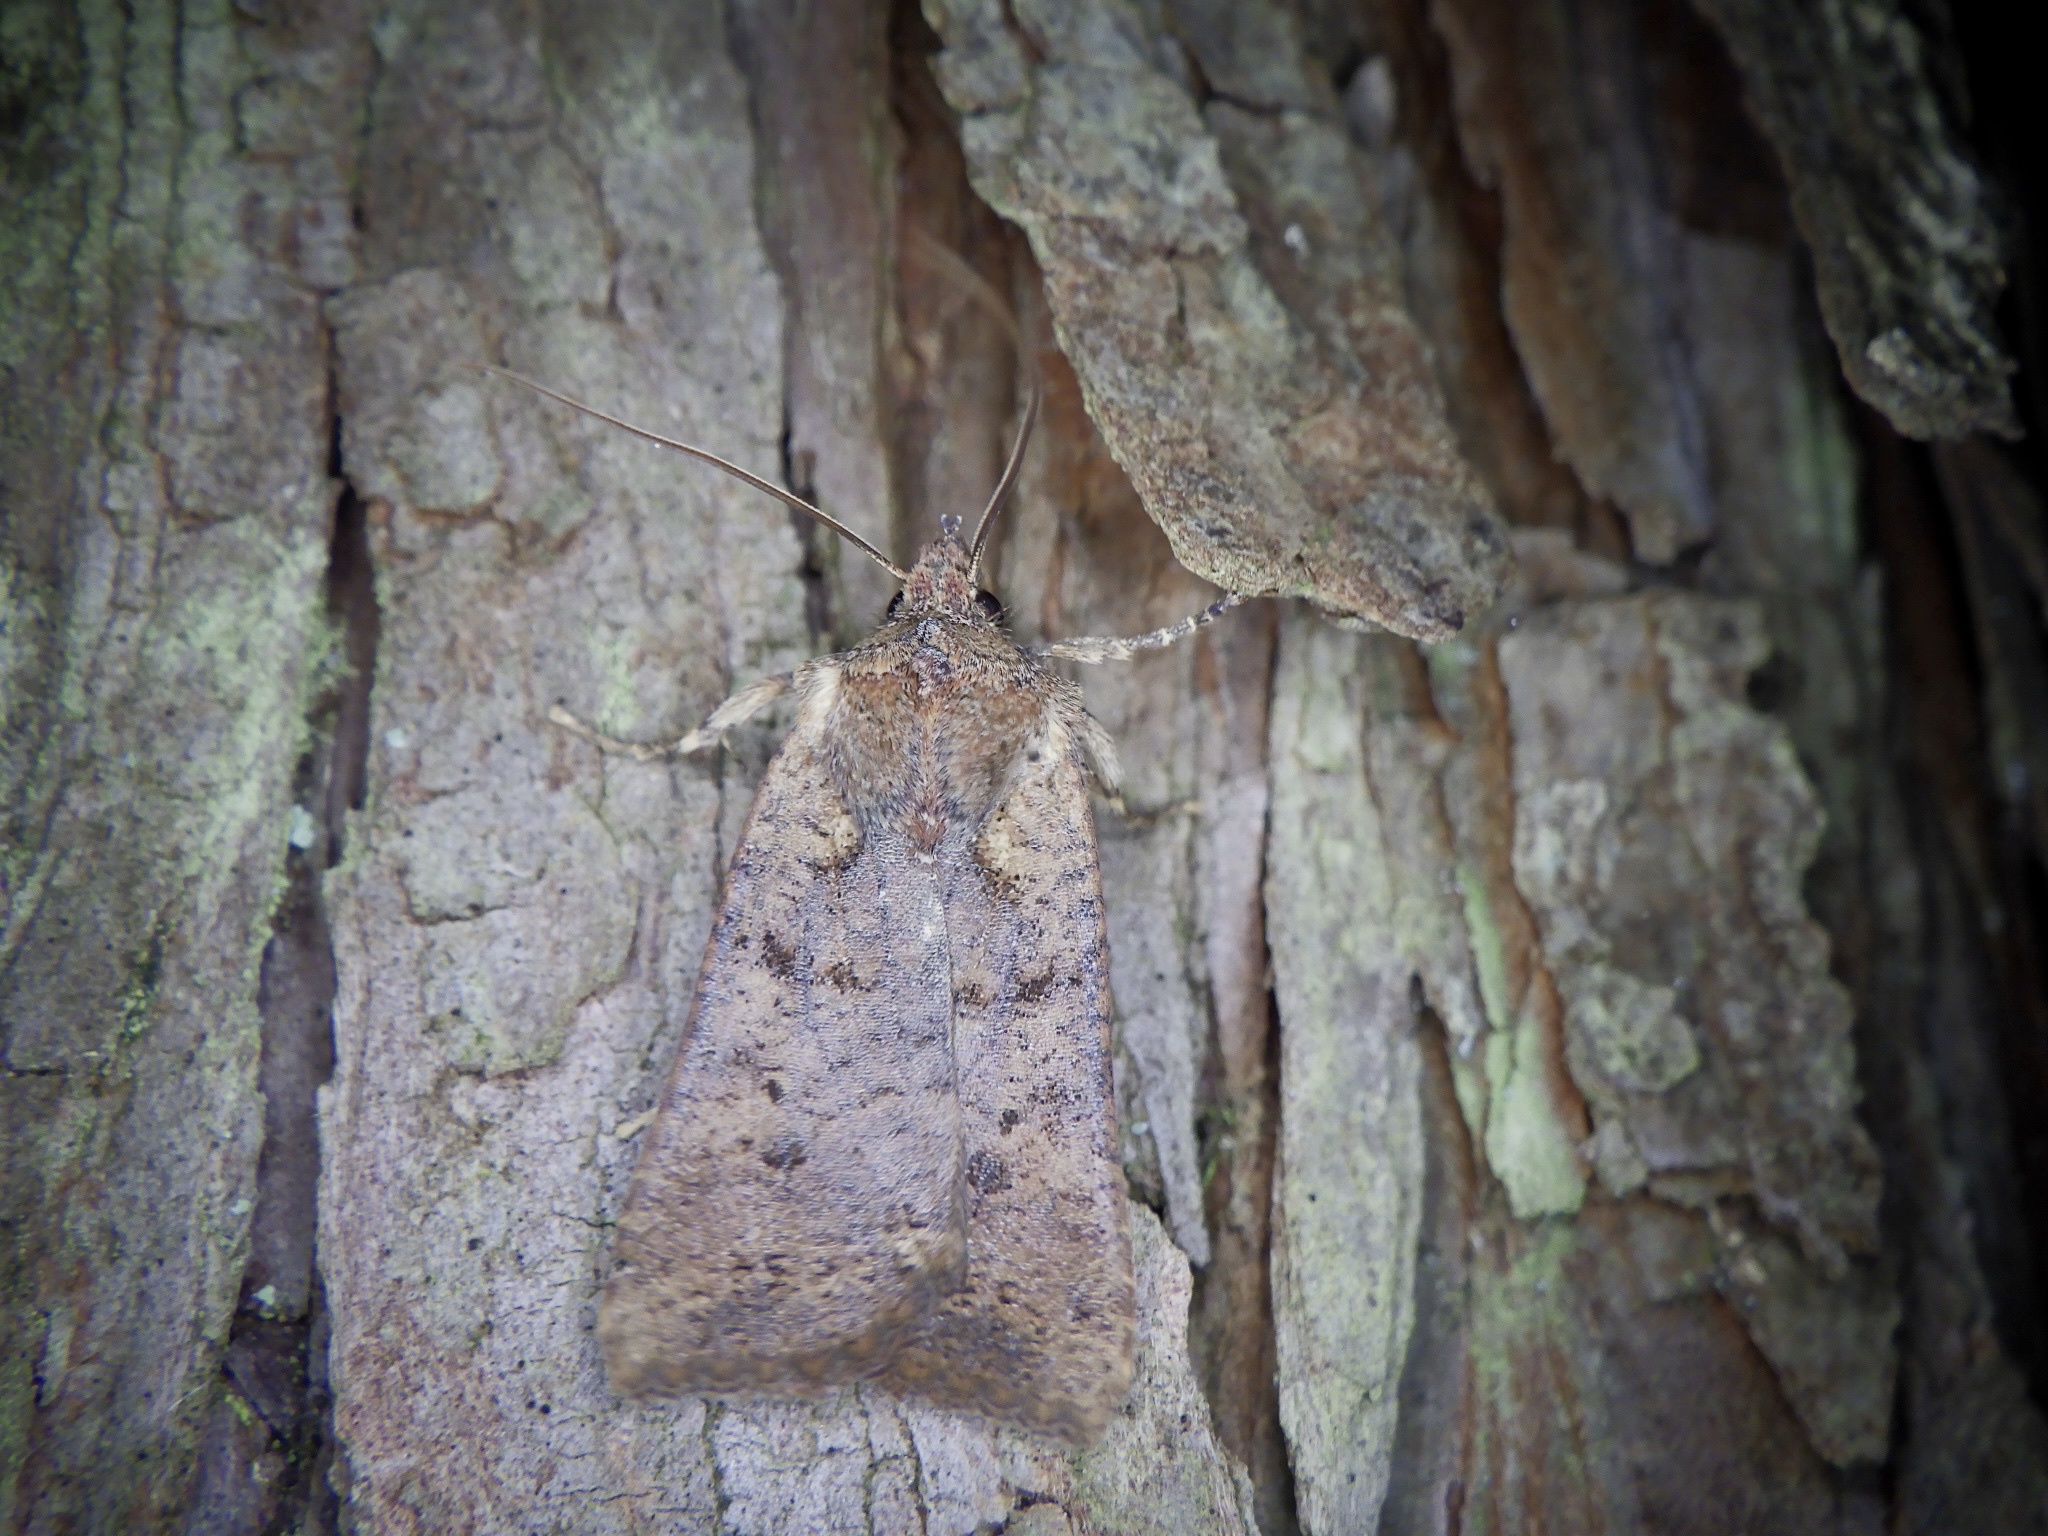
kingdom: Animalia
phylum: Arthropoda
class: Insecta
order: Lepidoptera
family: Noctuidae
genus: Rhynchaglaea
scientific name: Rhynchaglaea fuscipennis
